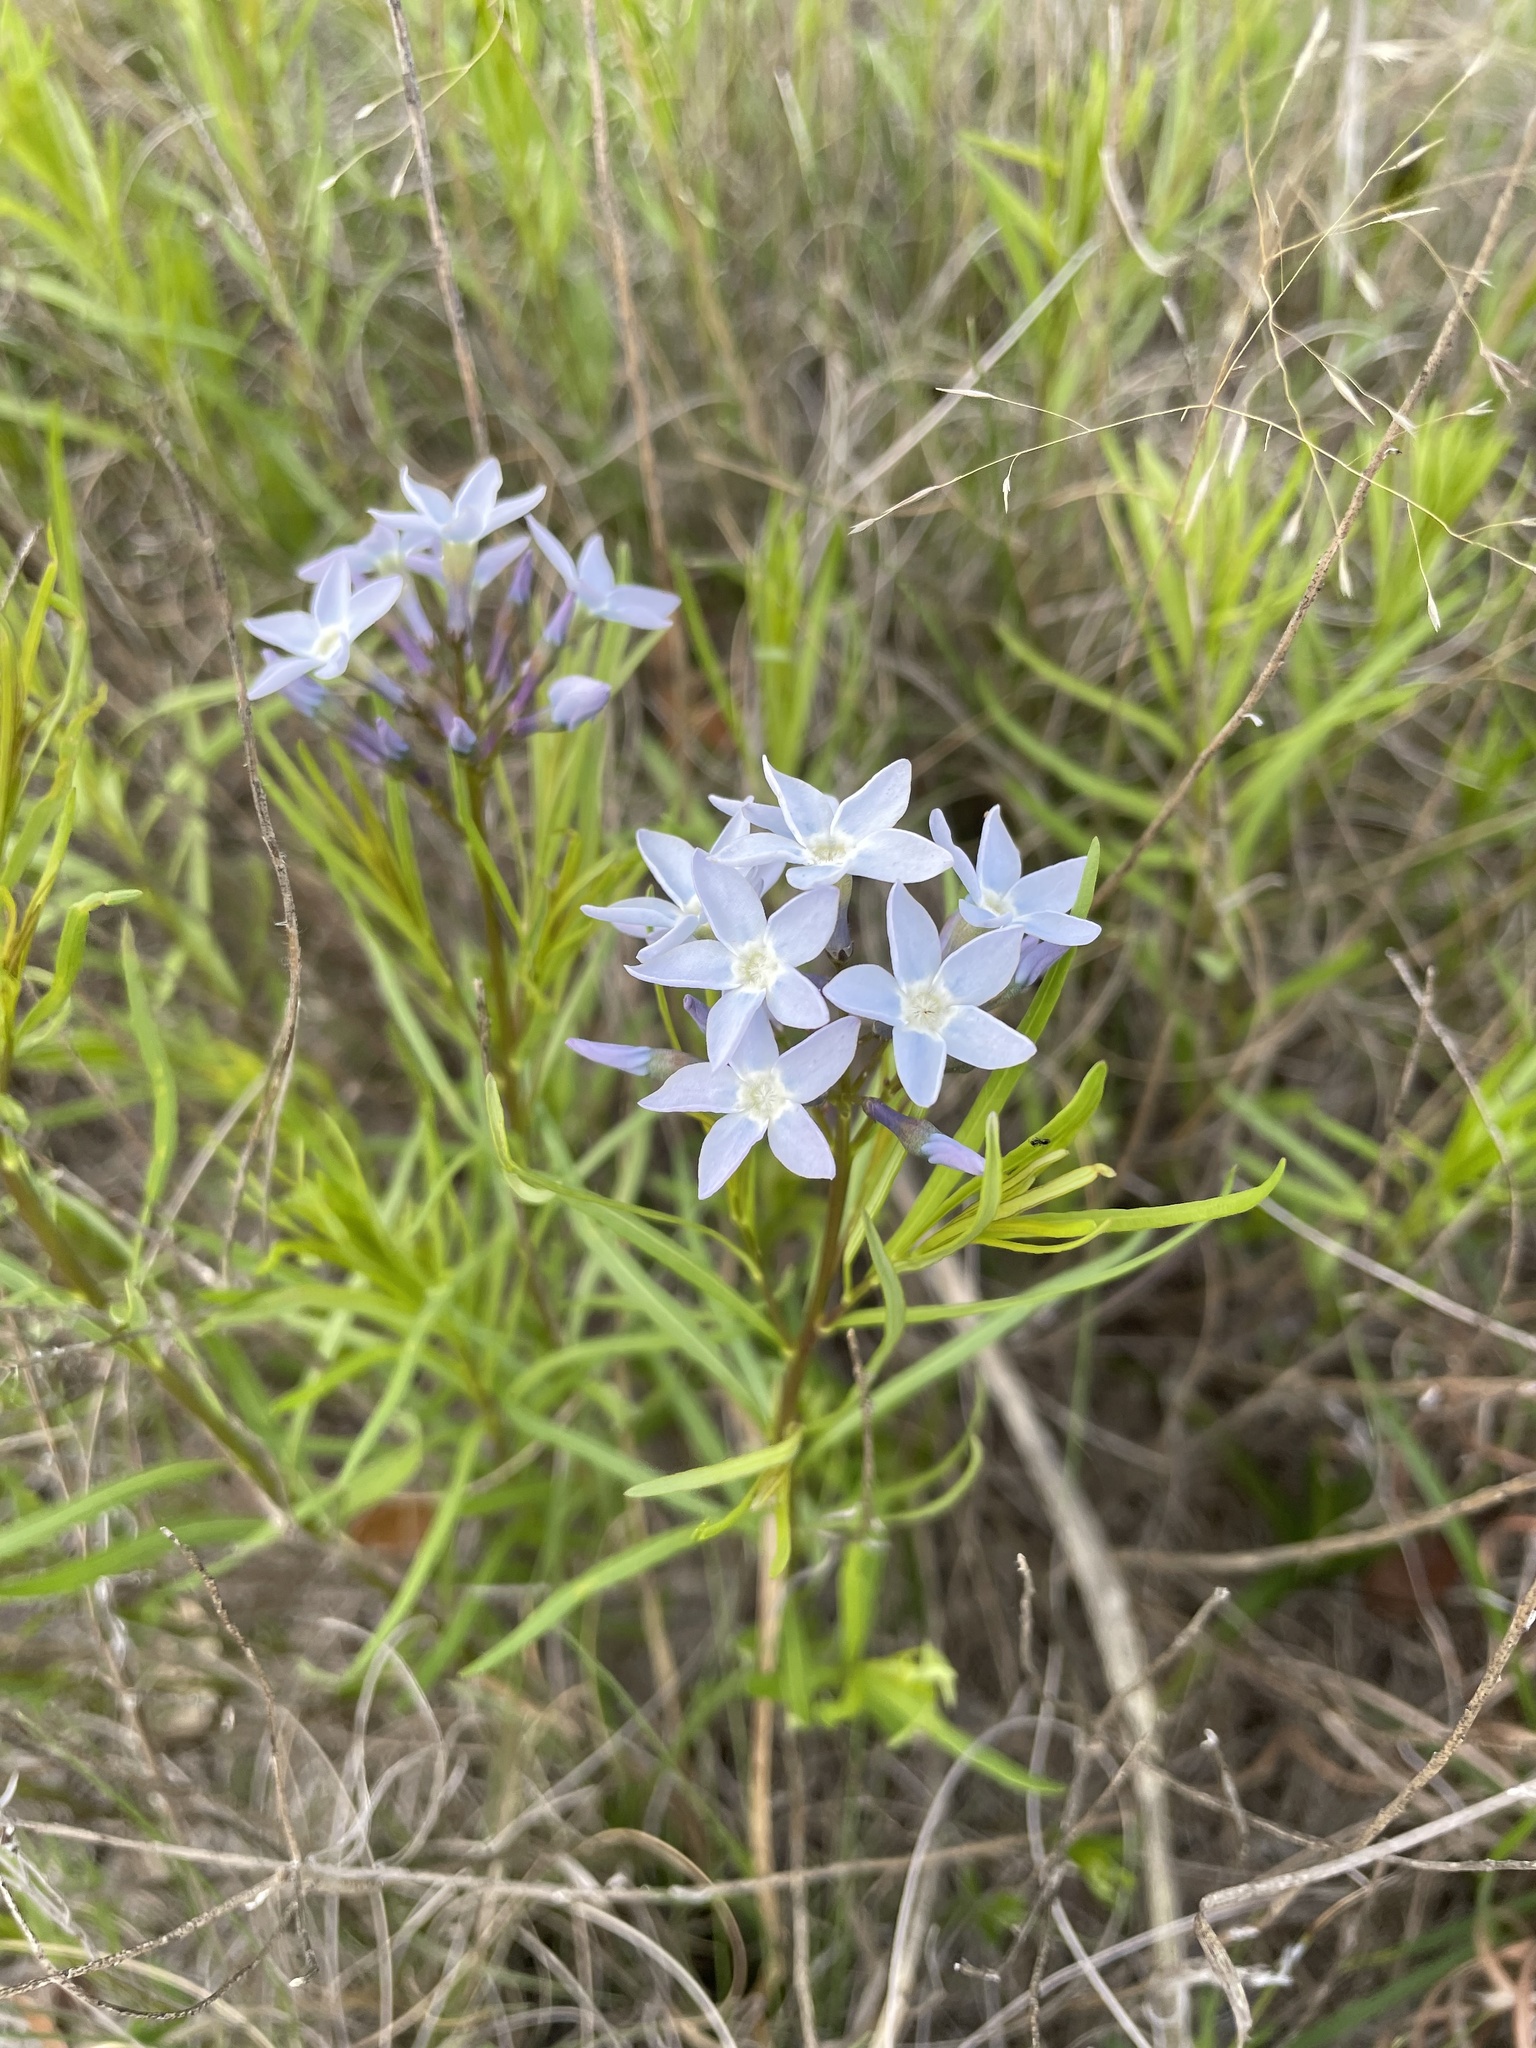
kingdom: Plantae
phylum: Tracheophyta
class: Magnoliopsida
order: Gentianales
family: Apocynaceae
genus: Amsonia
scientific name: Amsonia ciliata
